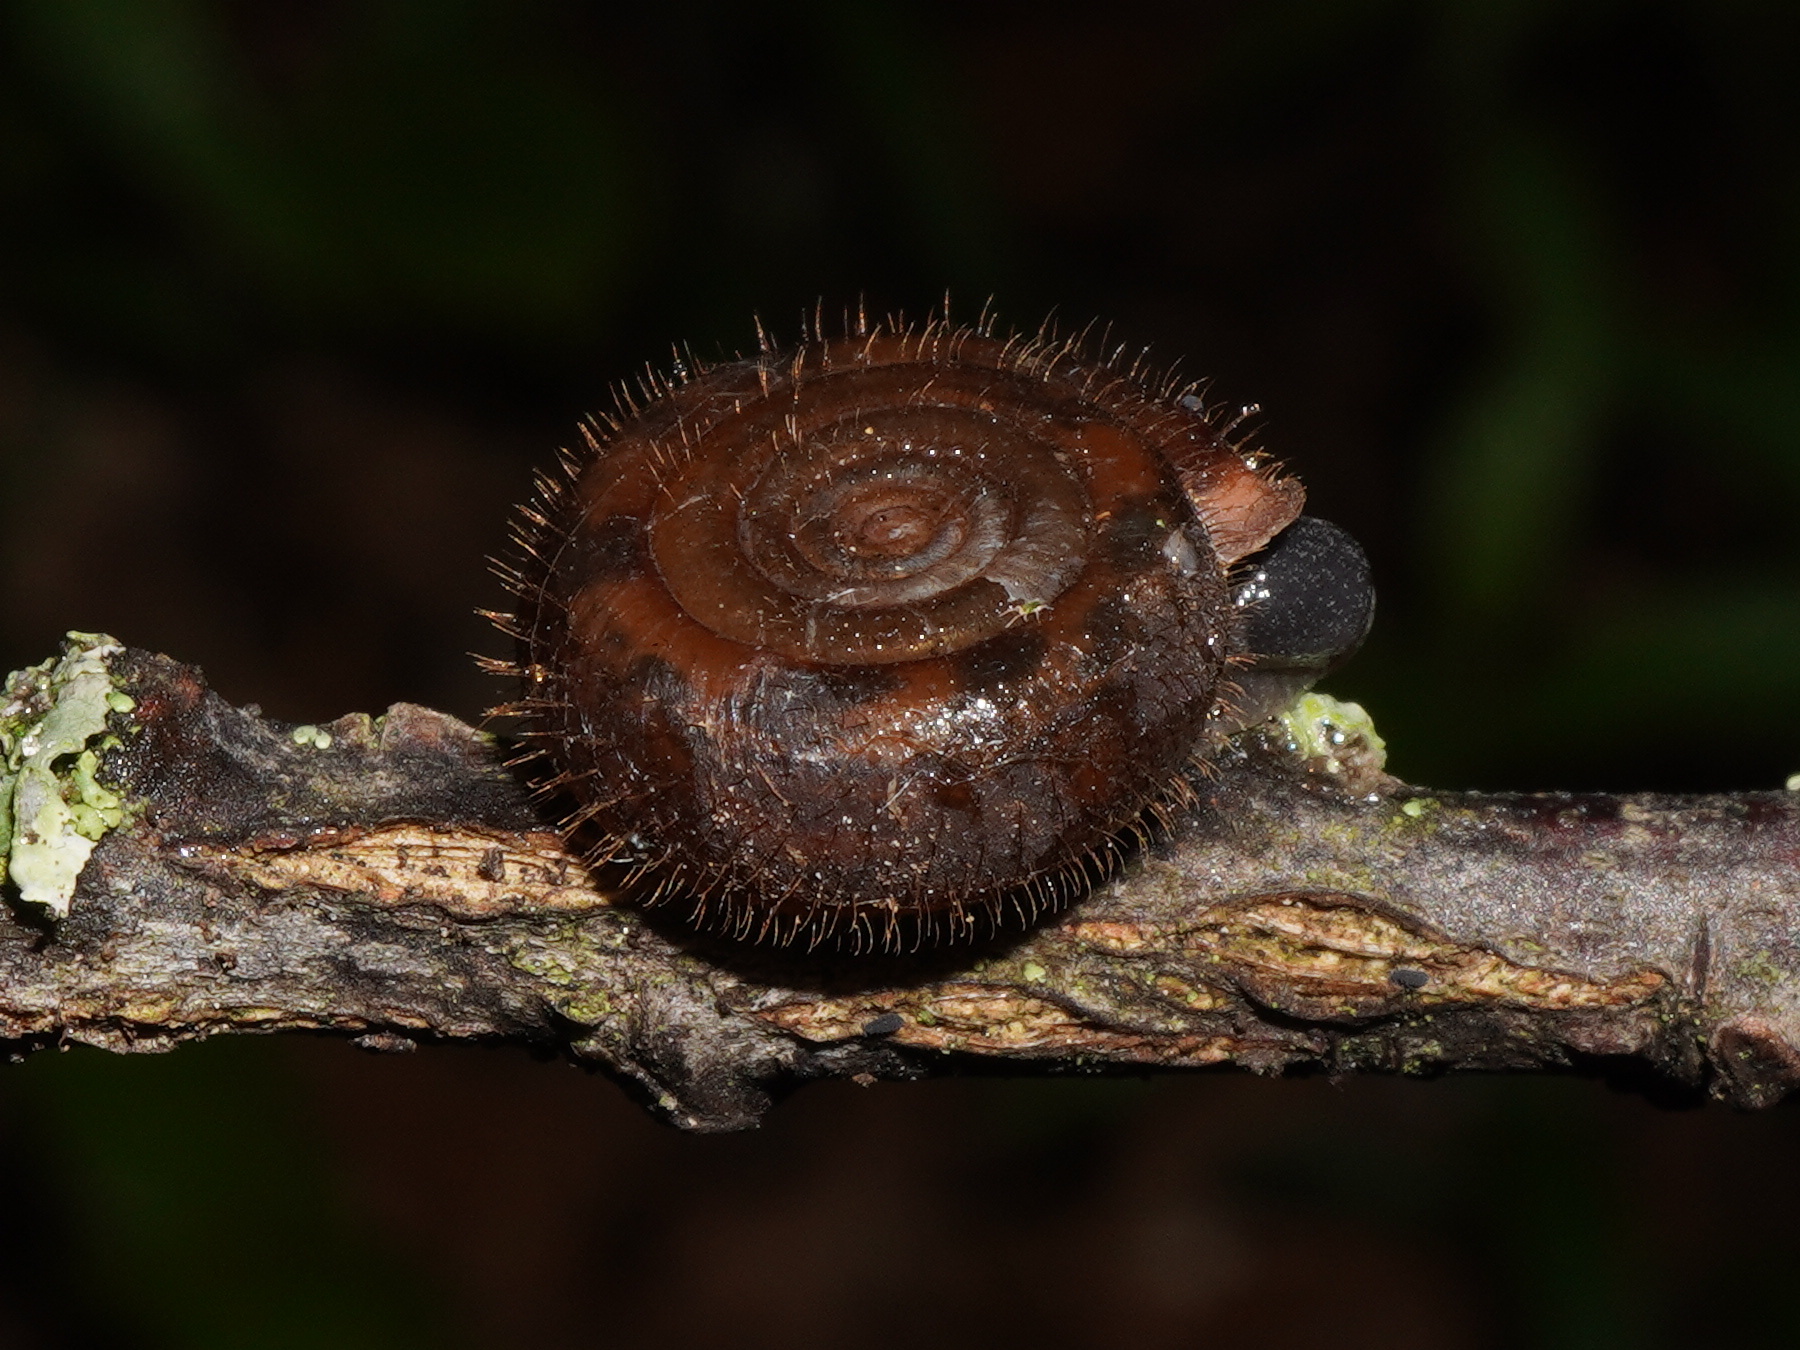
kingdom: Animalia
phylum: Mollusca
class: Gastropoda
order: Stylommatophora
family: Helicodontidae
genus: Helicodonta
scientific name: Helicodonta obvoluta
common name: Cheese snail
